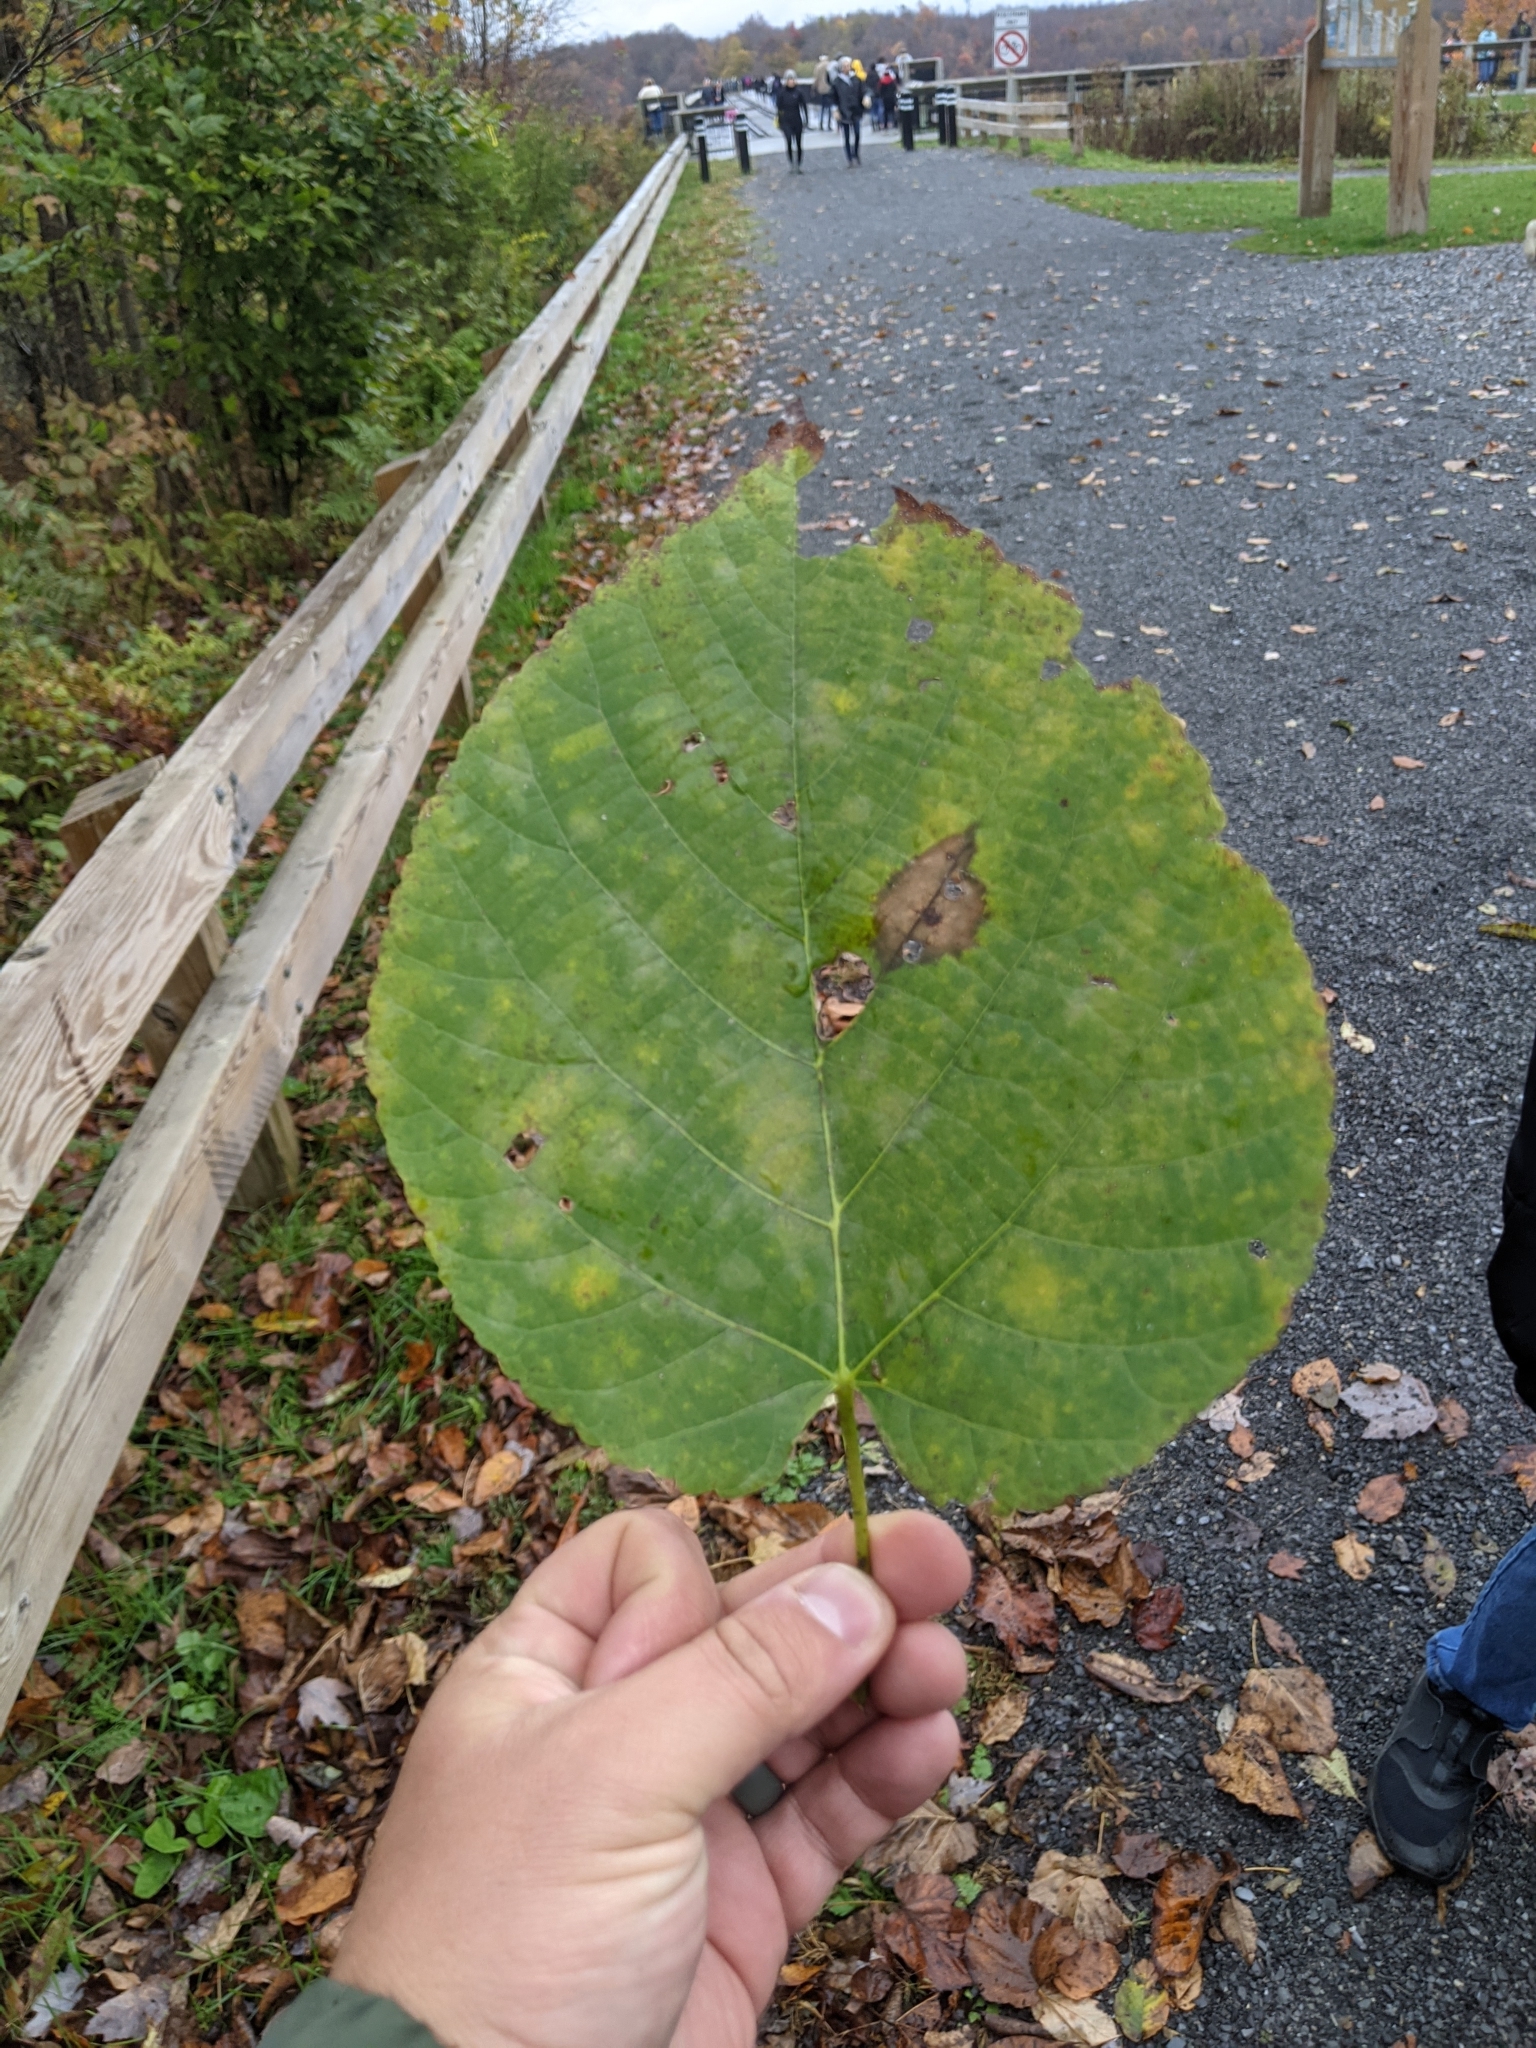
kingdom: Plantae
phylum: Tracheophyta
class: Magnoliopsida
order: Malvales
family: Malvaceae
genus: Tilia
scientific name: Tilia americana
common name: Basswood
